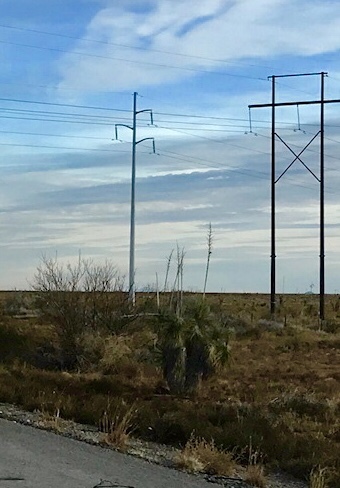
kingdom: Plantae
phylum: Tracheophyta
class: Liliopsida
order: Asparagales
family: Asparagaceae
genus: Yucca
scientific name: Yucca elata
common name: Palmella
